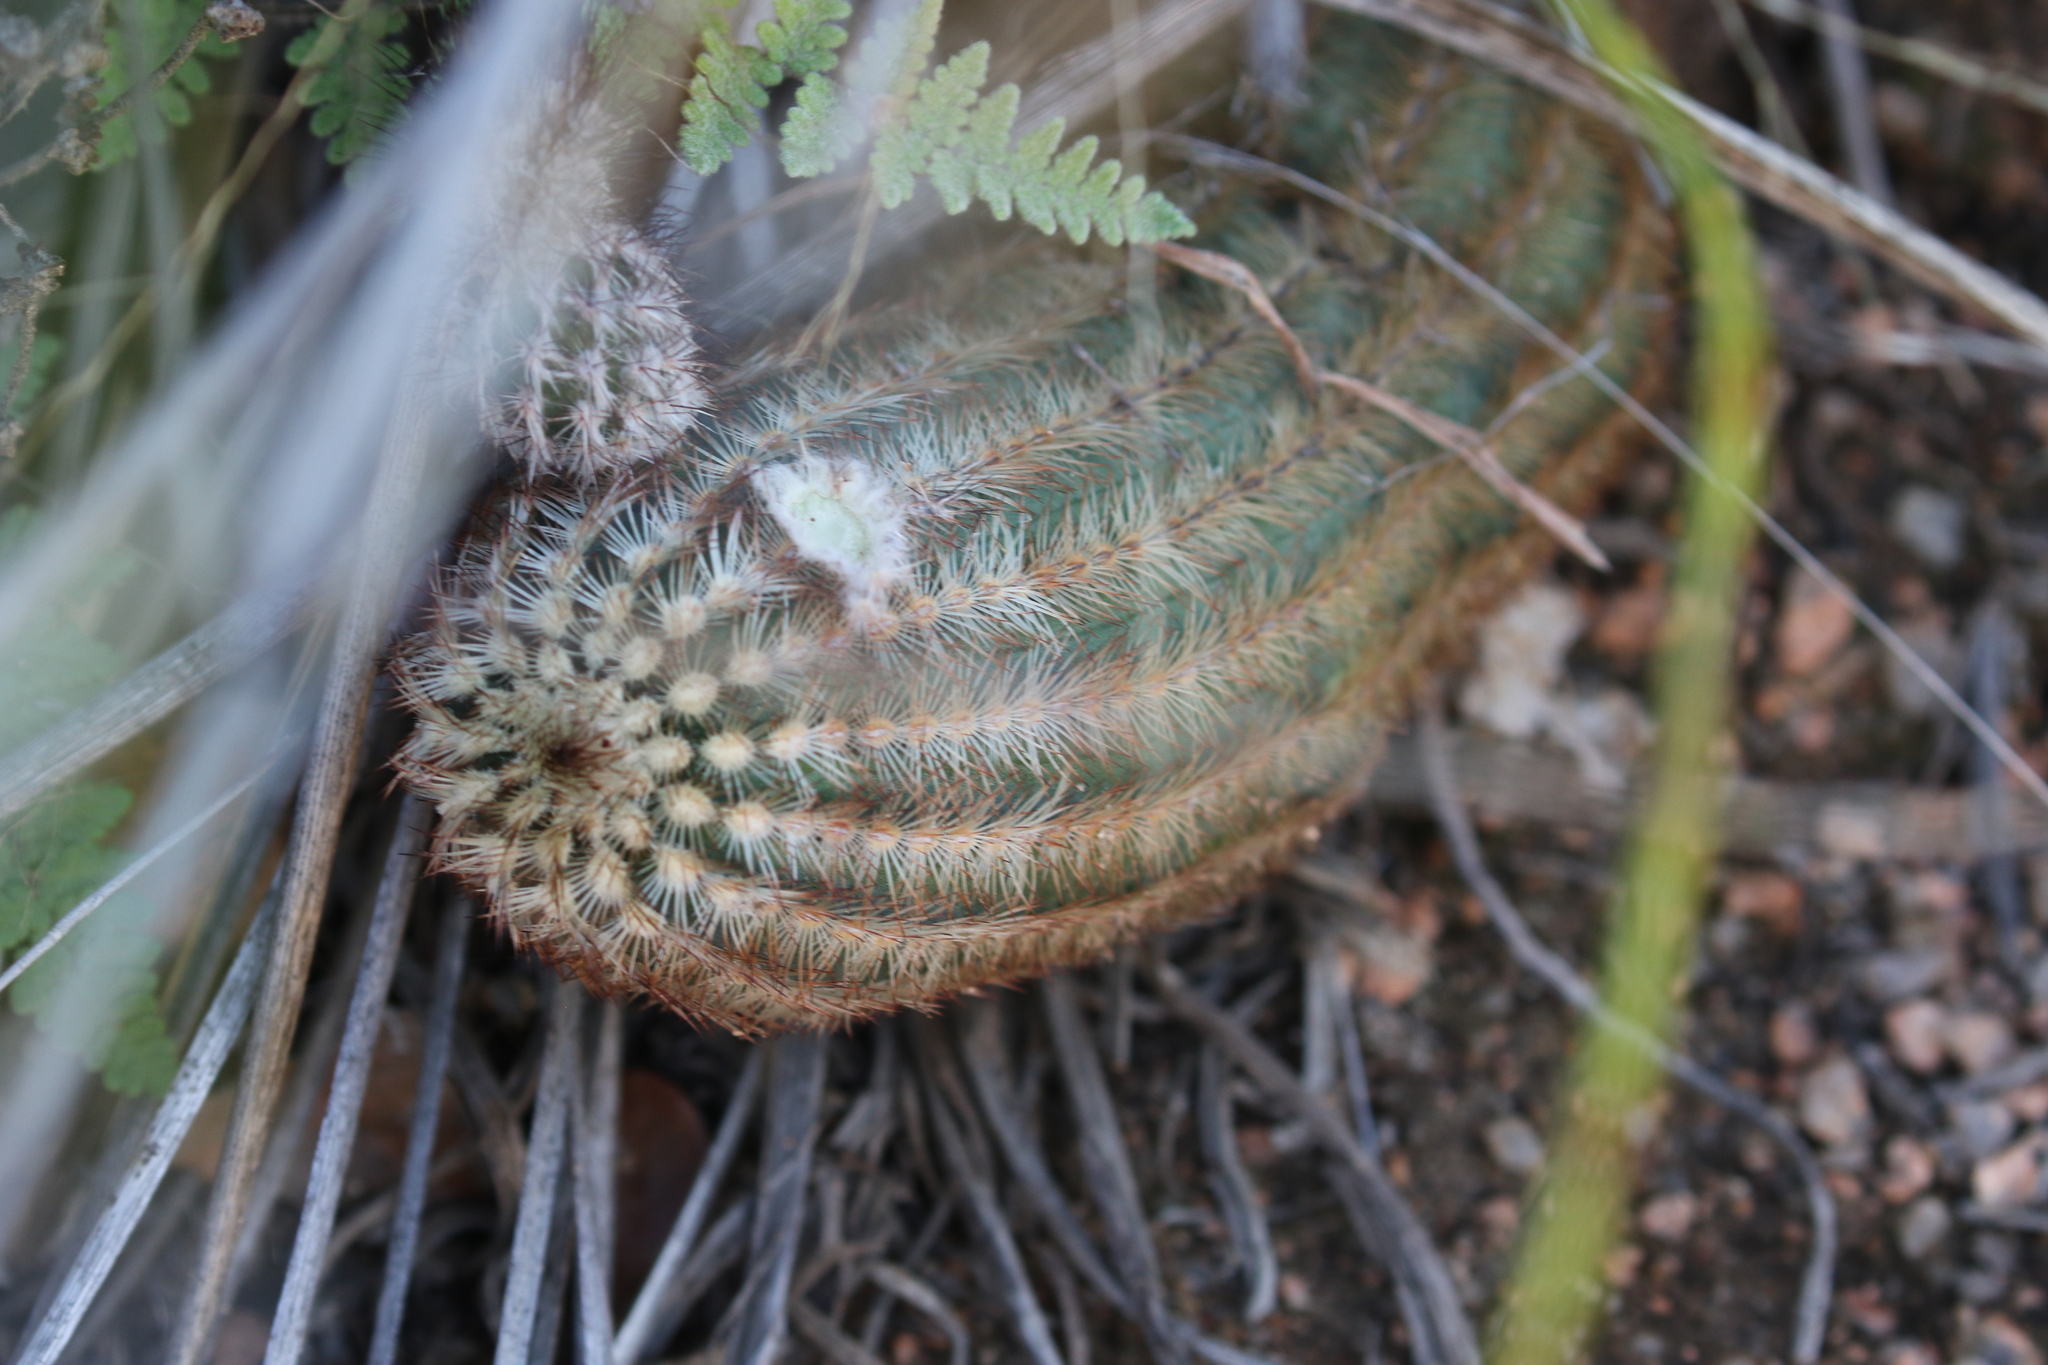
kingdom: Plantae
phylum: Tracheophyta
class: Magnoliopsida
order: Caryophyllales
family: Cactaceae
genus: Echinocereus
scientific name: Echinocereus reichenbachii
